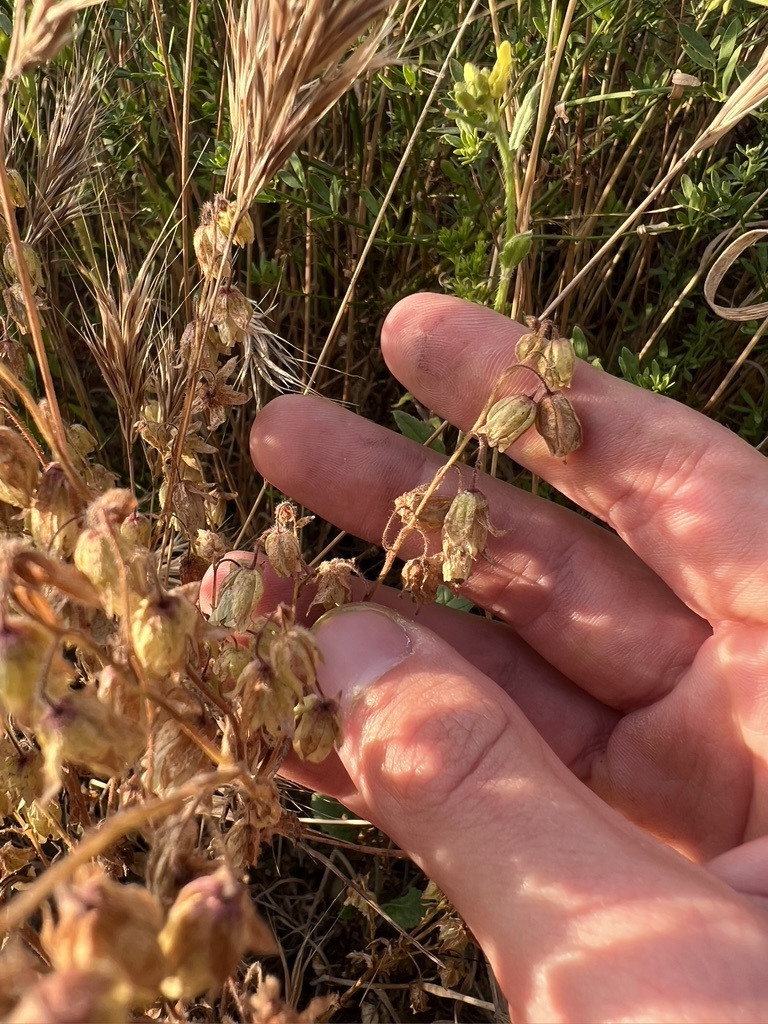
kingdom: Plantae
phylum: Tracheophyta
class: Magnoliopsida
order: Boraginales
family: Hydrophyllaceae
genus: Emmenanthe
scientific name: Emmenanthe penduliflora
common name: Whispering-bells
